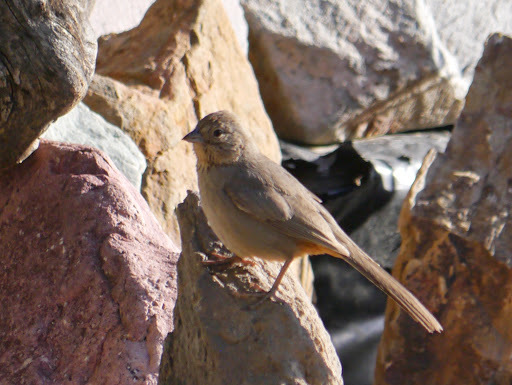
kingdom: Animalia
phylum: Chordata
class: Aves
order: Passeriformes
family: Passerellidae
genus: Melozone
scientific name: Melozone fusca
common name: Canyon towhee
